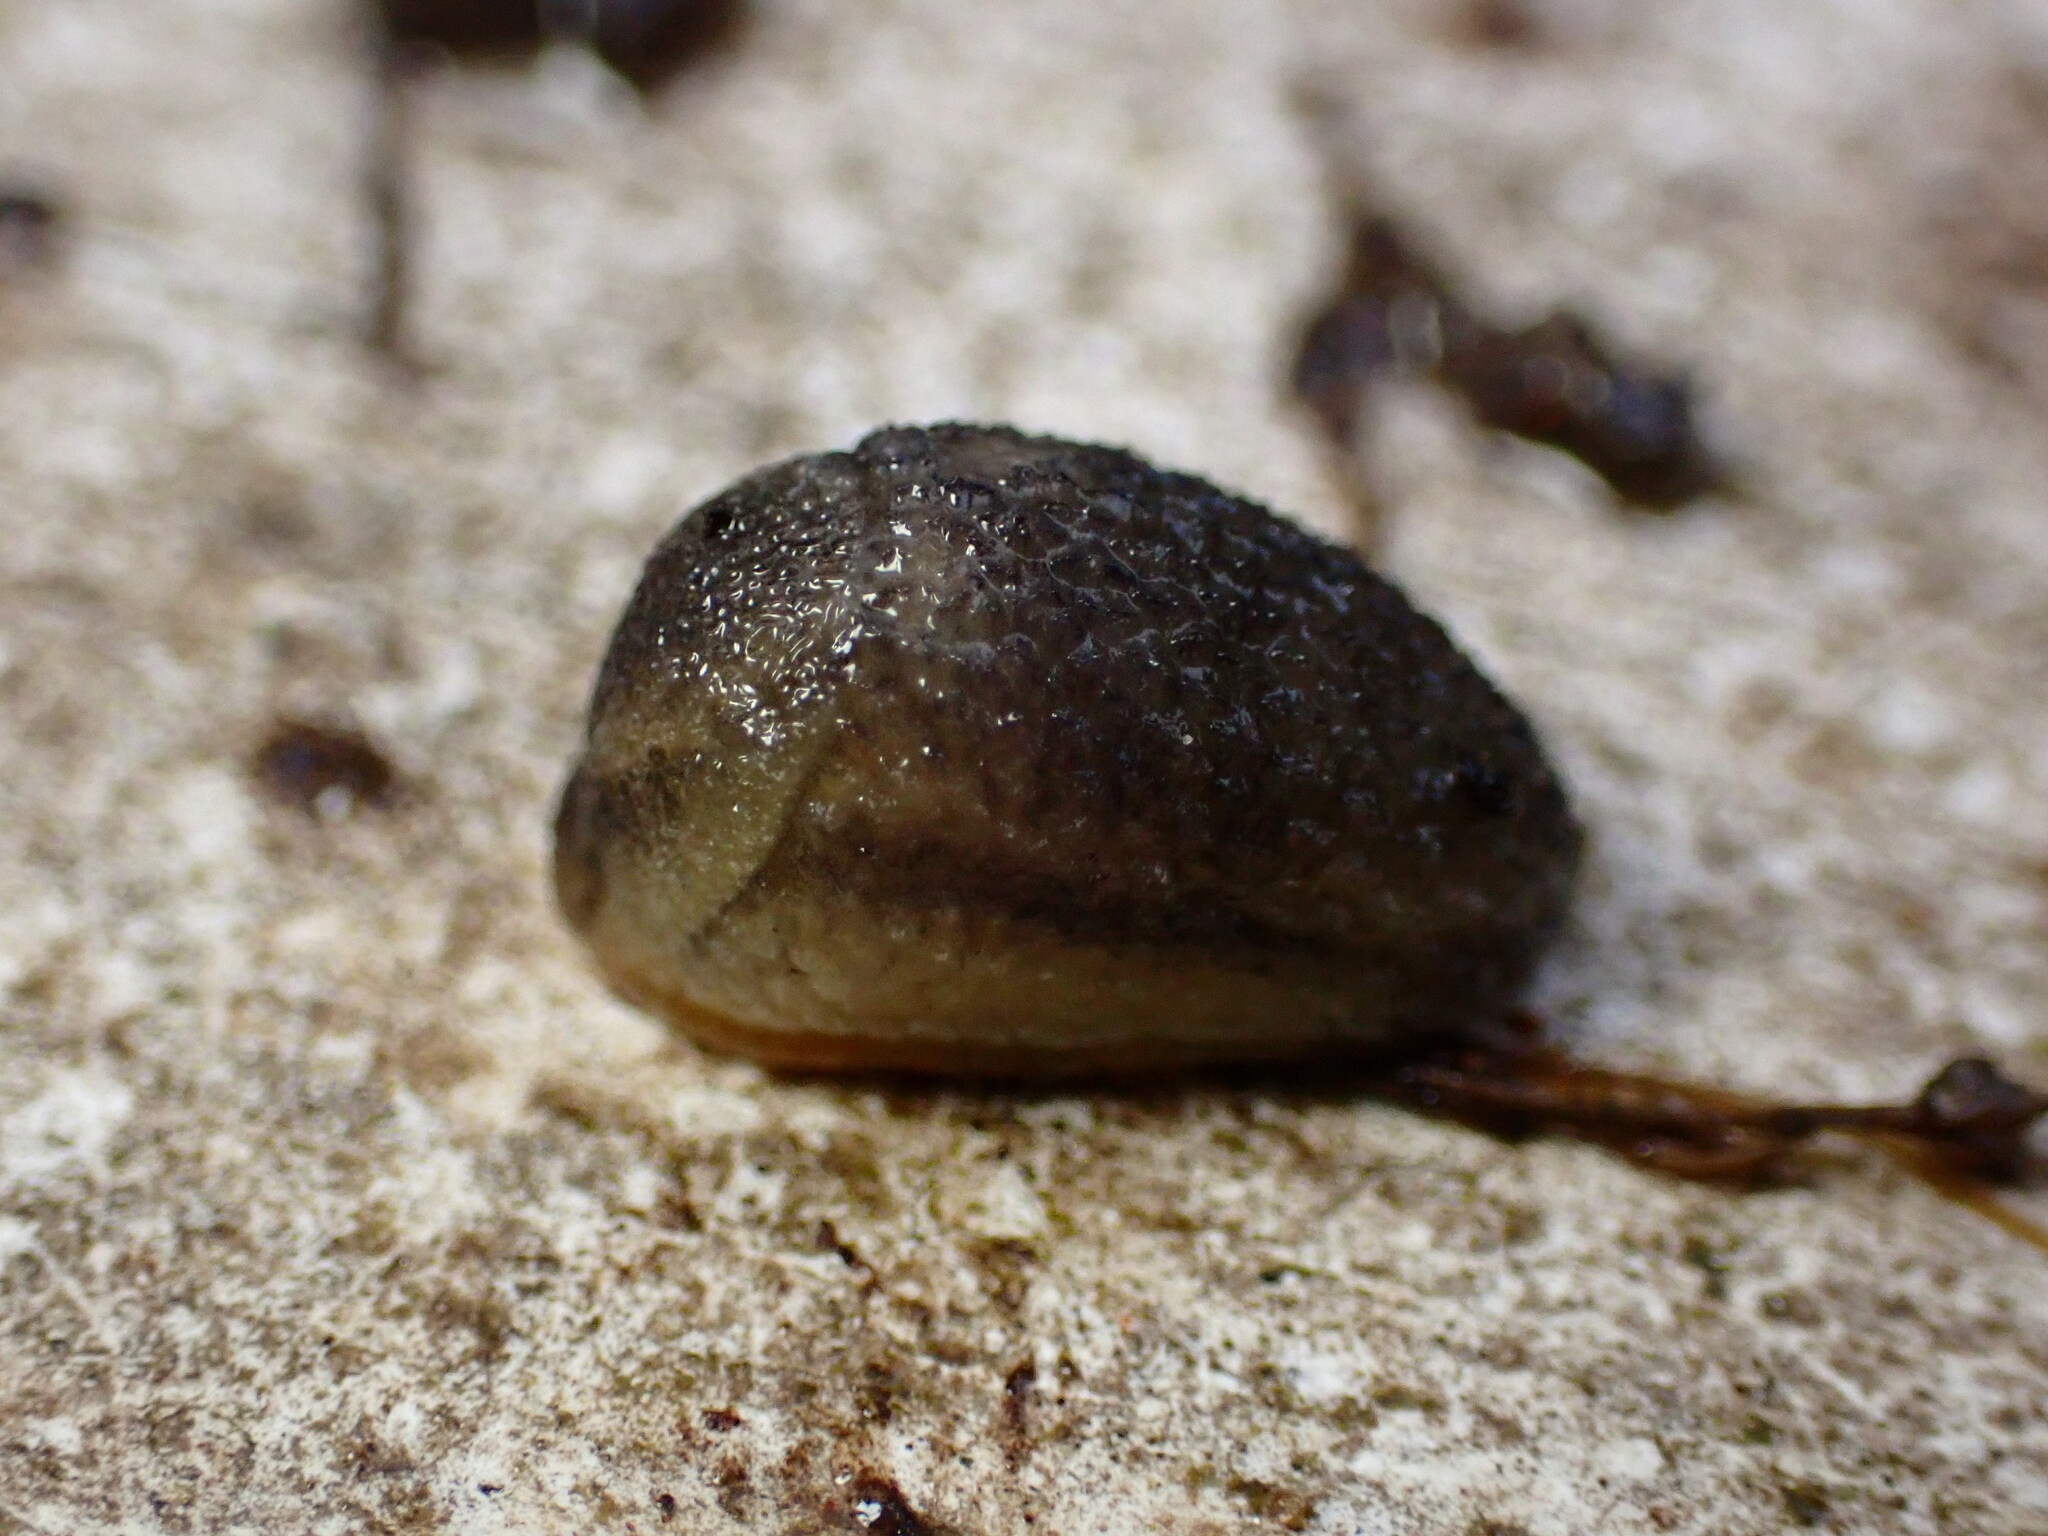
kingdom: Animalia
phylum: Mollusca
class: Gastropoda
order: Stylommatophora
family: Arionidae
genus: Arion
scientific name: Arion intermedius
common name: Hedgehog slug
